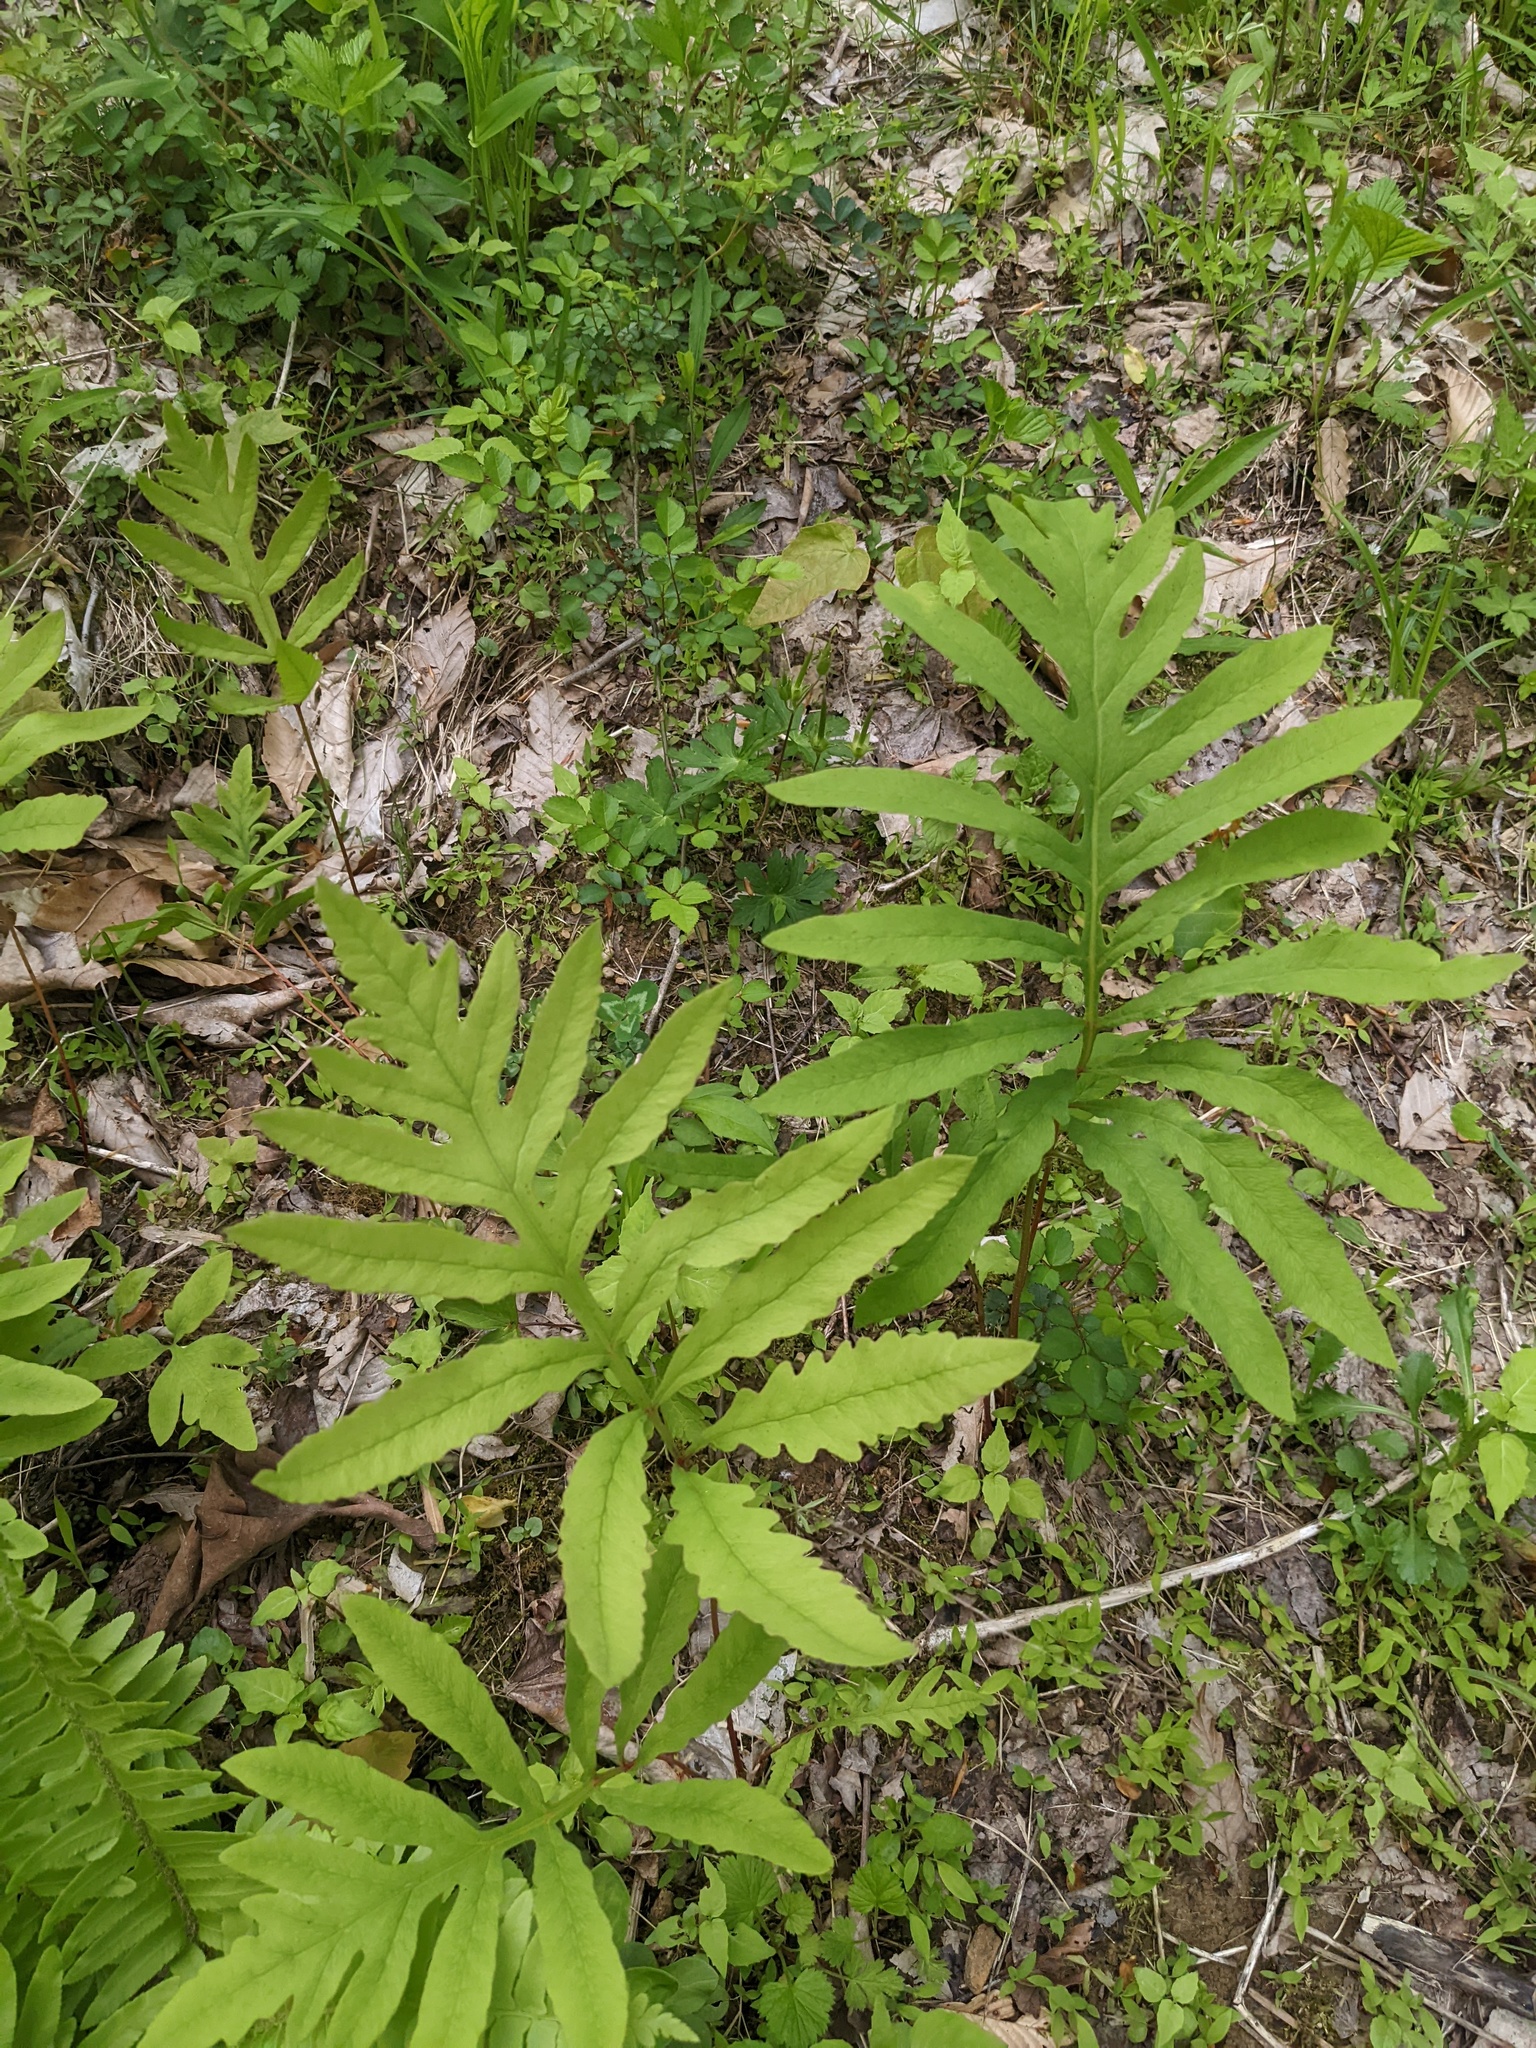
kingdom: Plantae
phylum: Tracheophyta
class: Polypodiopsida
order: Polypodiales
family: Onocleaceae
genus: Onoclea
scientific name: Onoclea sensibilis
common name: Sensitive fern
